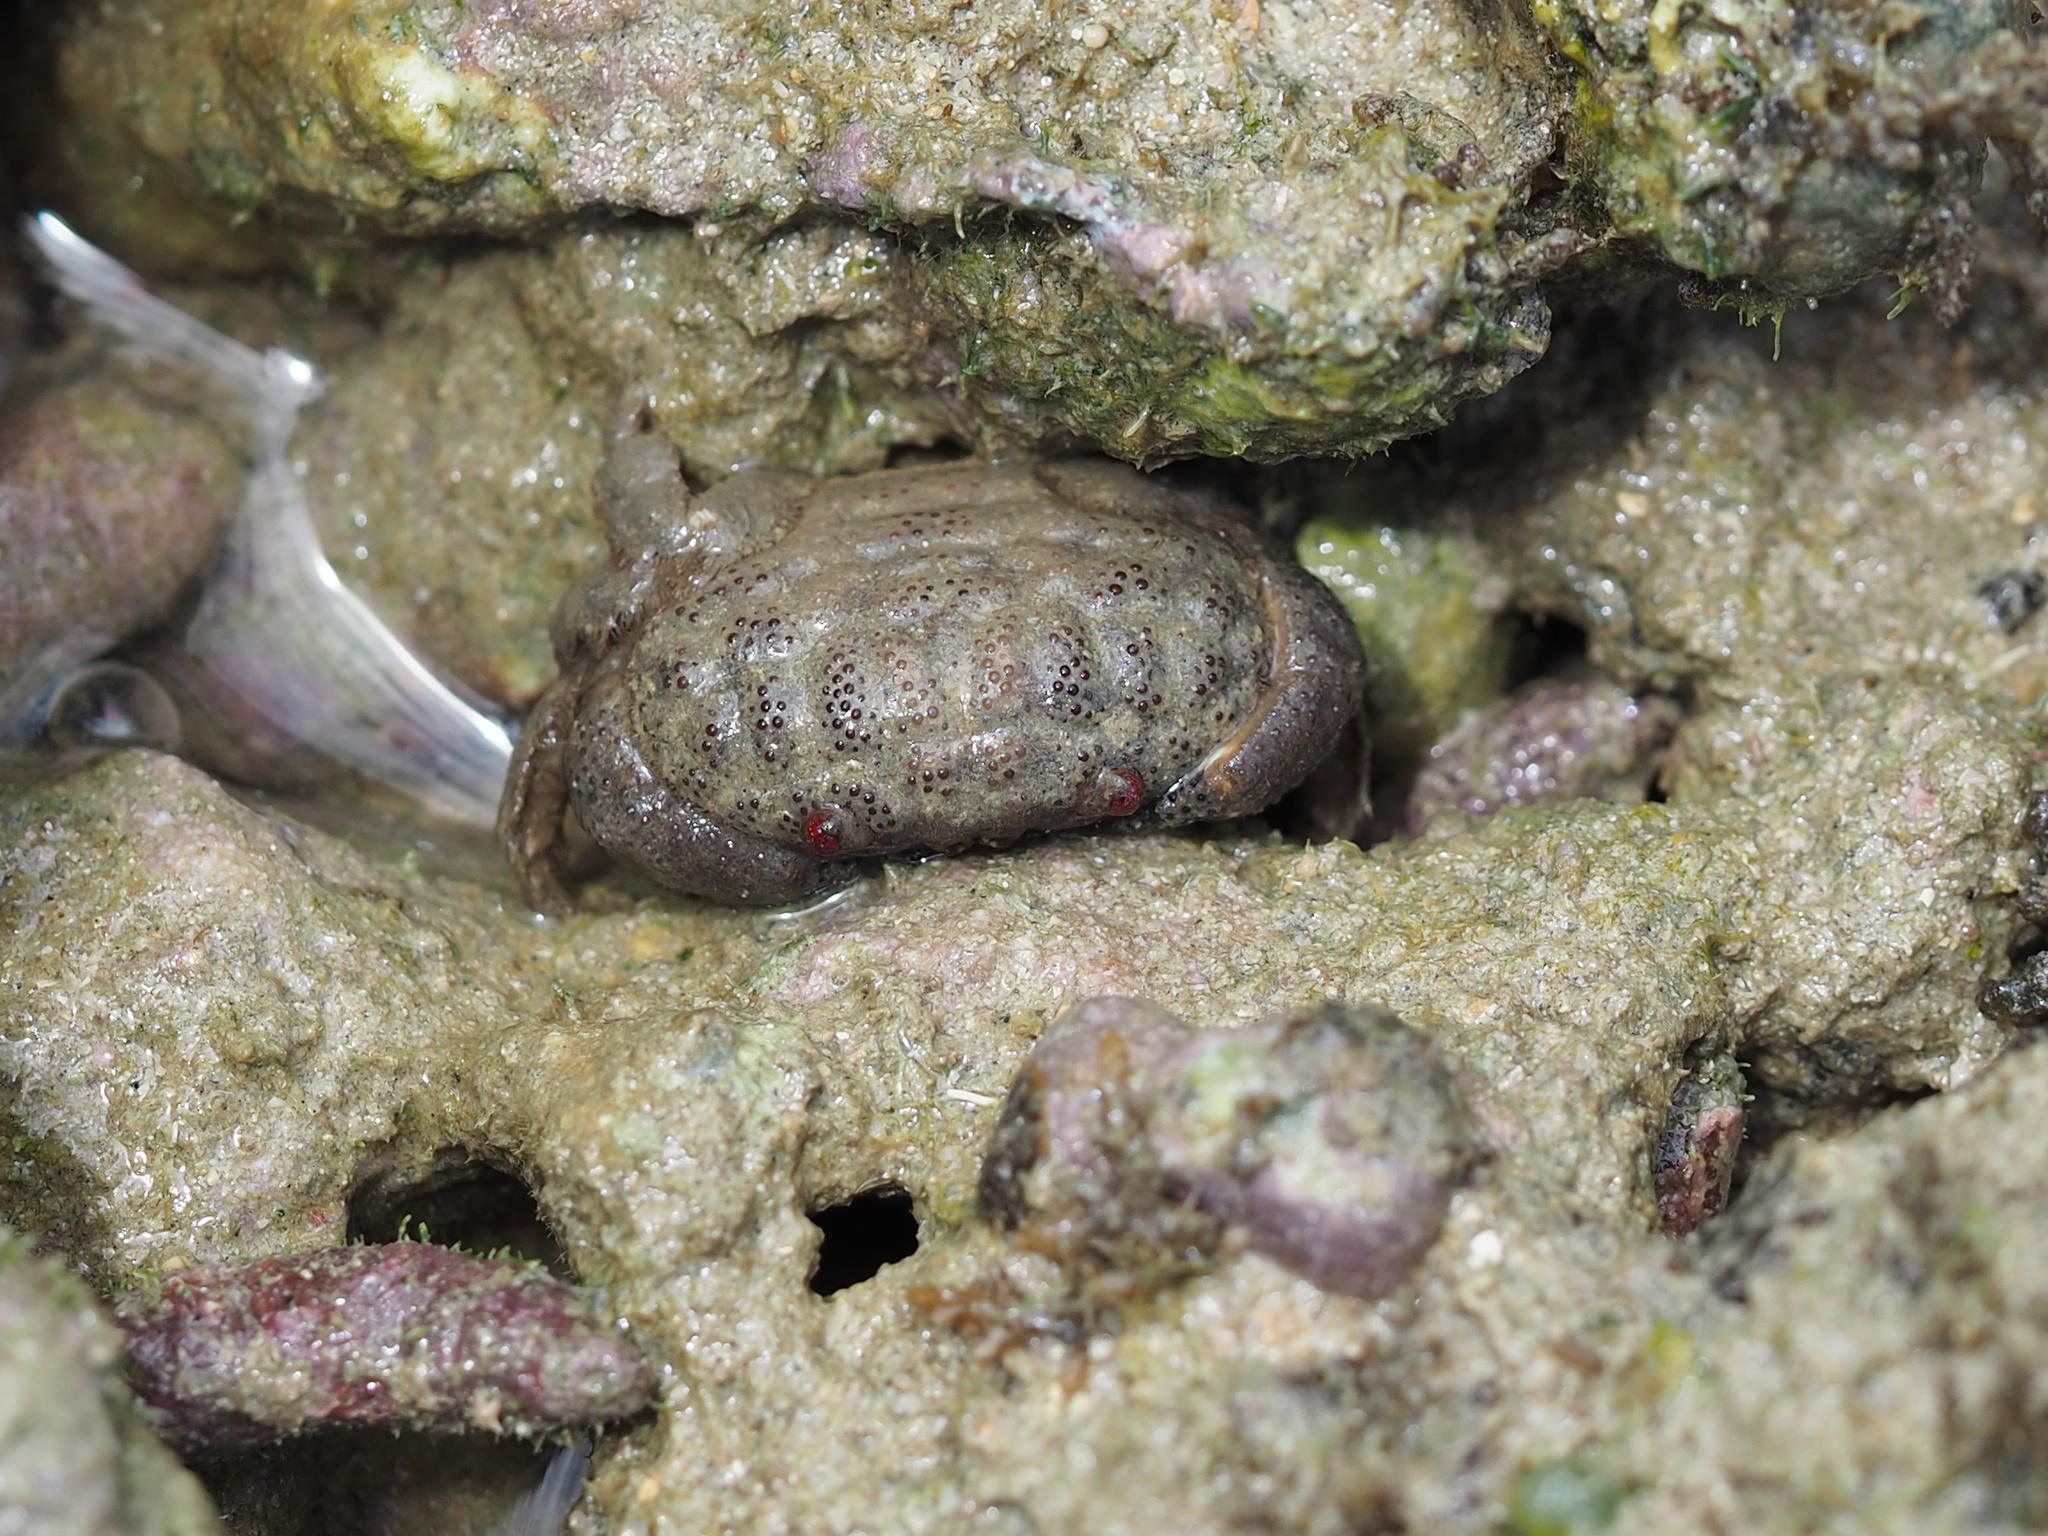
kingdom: Animalia
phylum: Arthropoda
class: Malacostraca
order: Decapoda
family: Xanthidae
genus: Actaeodes
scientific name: Actaeodes tomentosus
